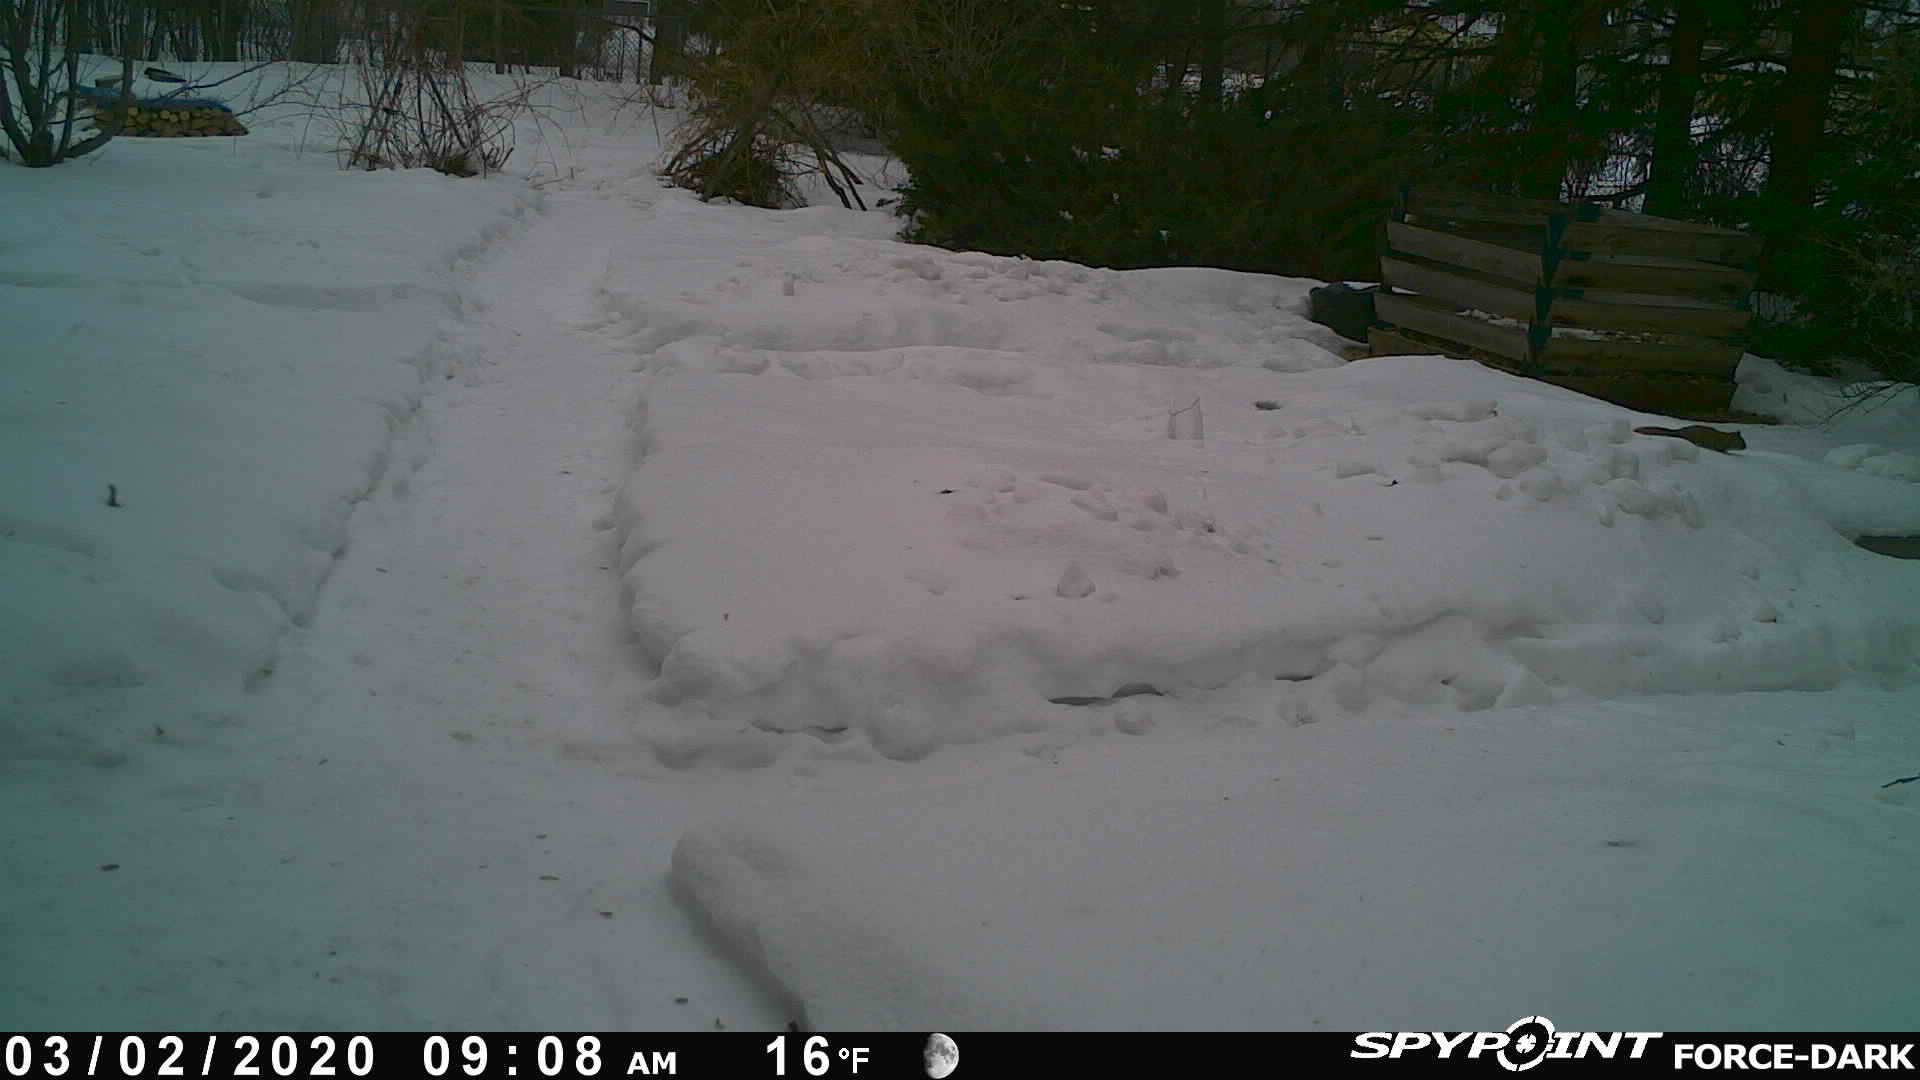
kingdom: Animalia
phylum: Chordata
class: Mammalia
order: Rodentia
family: Sciuridae
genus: Tamiasciurus
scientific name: Tamiasciurus hudsonicus
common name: Red squirrel
